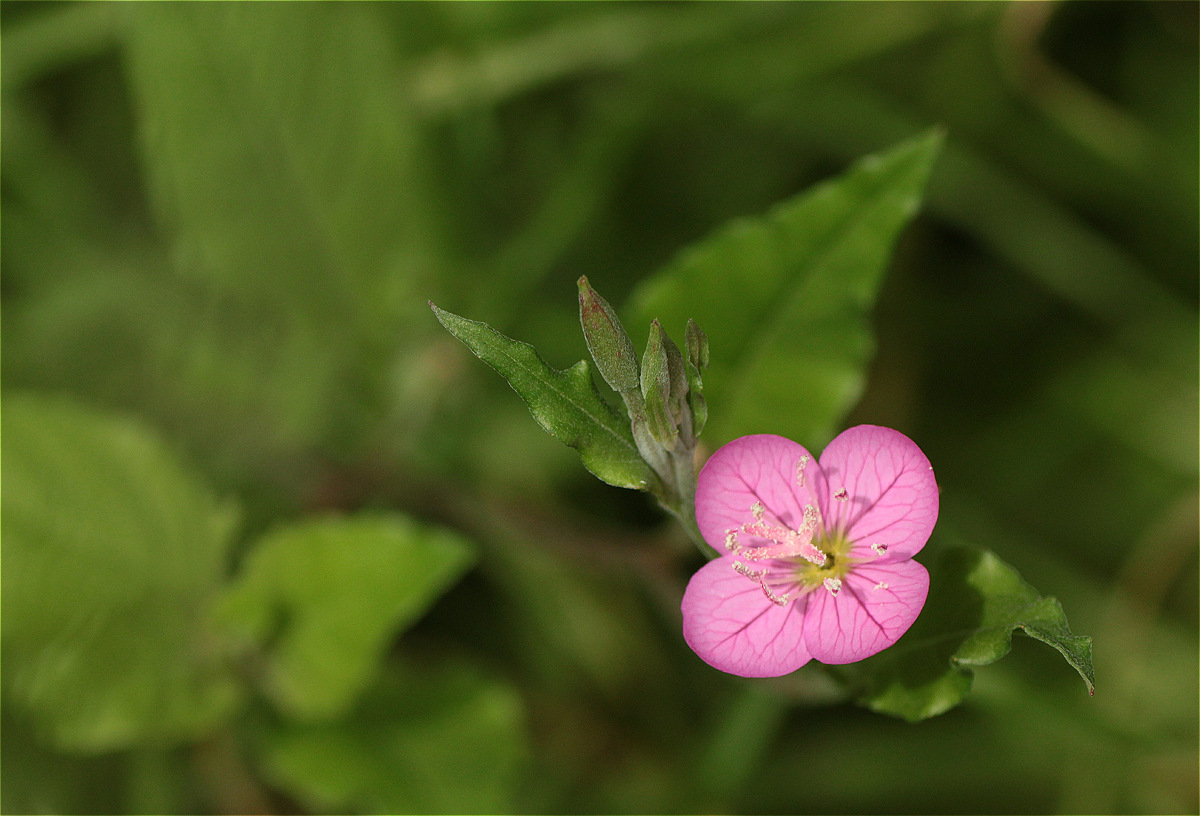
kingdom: Plantae
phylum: Tracheophyta
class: Magnoliopsida
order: Myrtales
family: Onagraceae
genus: Oenothera
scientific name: Oenothera rosea
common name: Rosy evening-primrose
